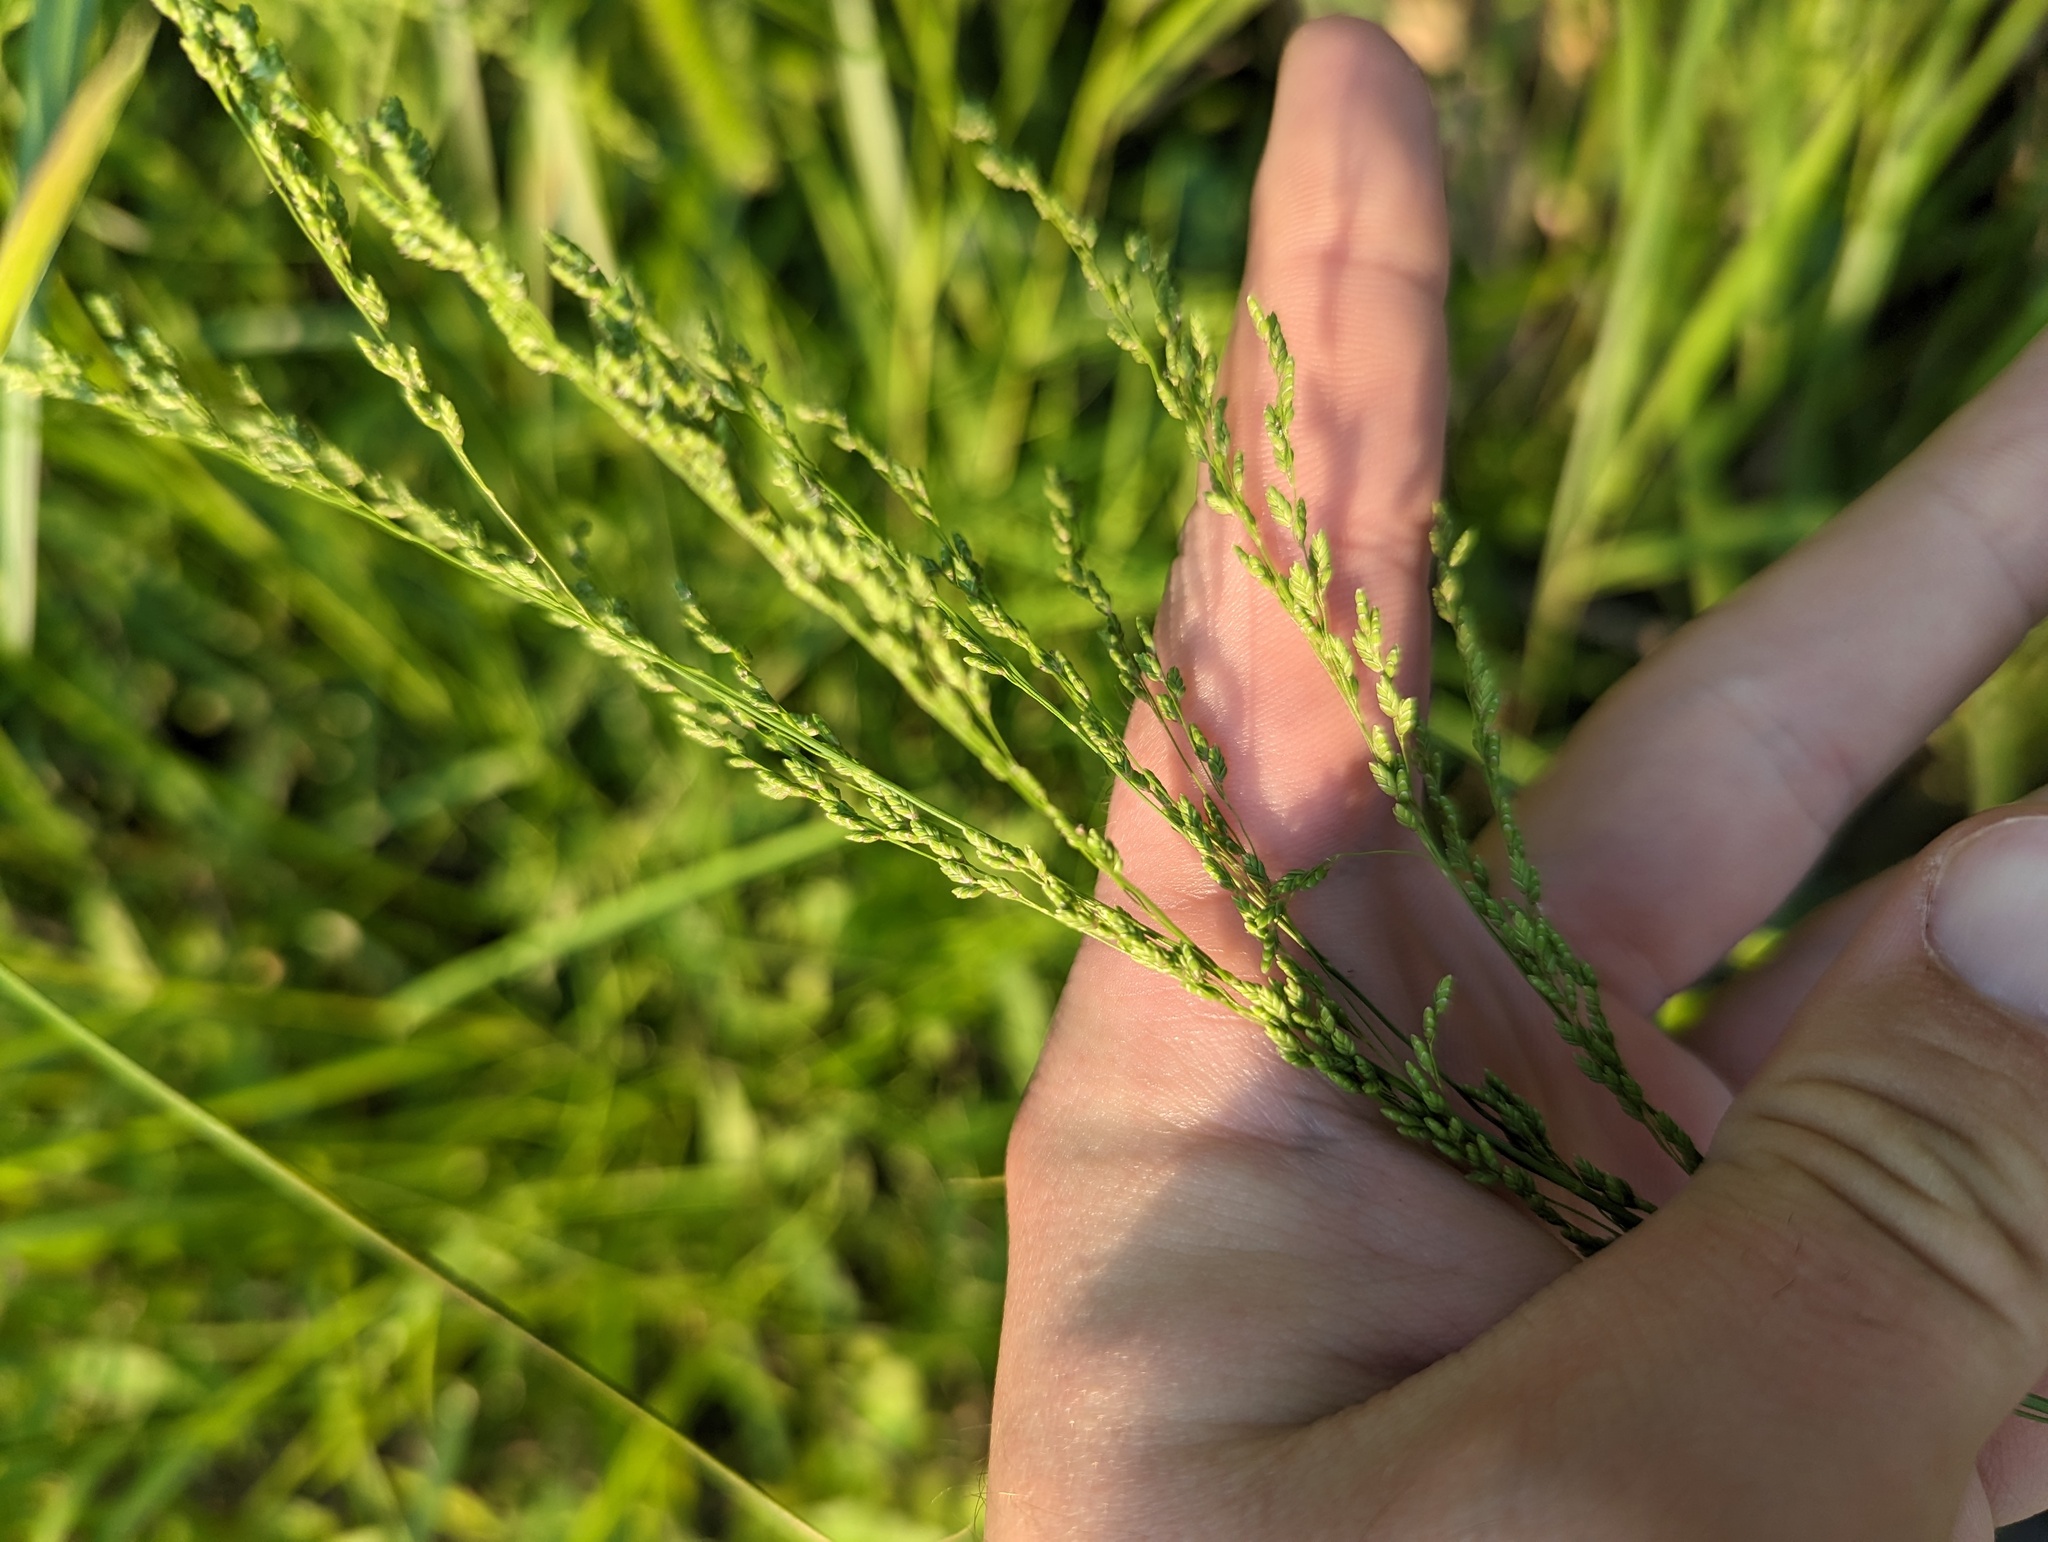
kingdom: Plantae
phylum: Tracheophyta
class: Liliopsida
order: Poales
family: Poaceae
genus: Glyceria
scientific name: Glyceria striata
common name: Fowl manna grass
